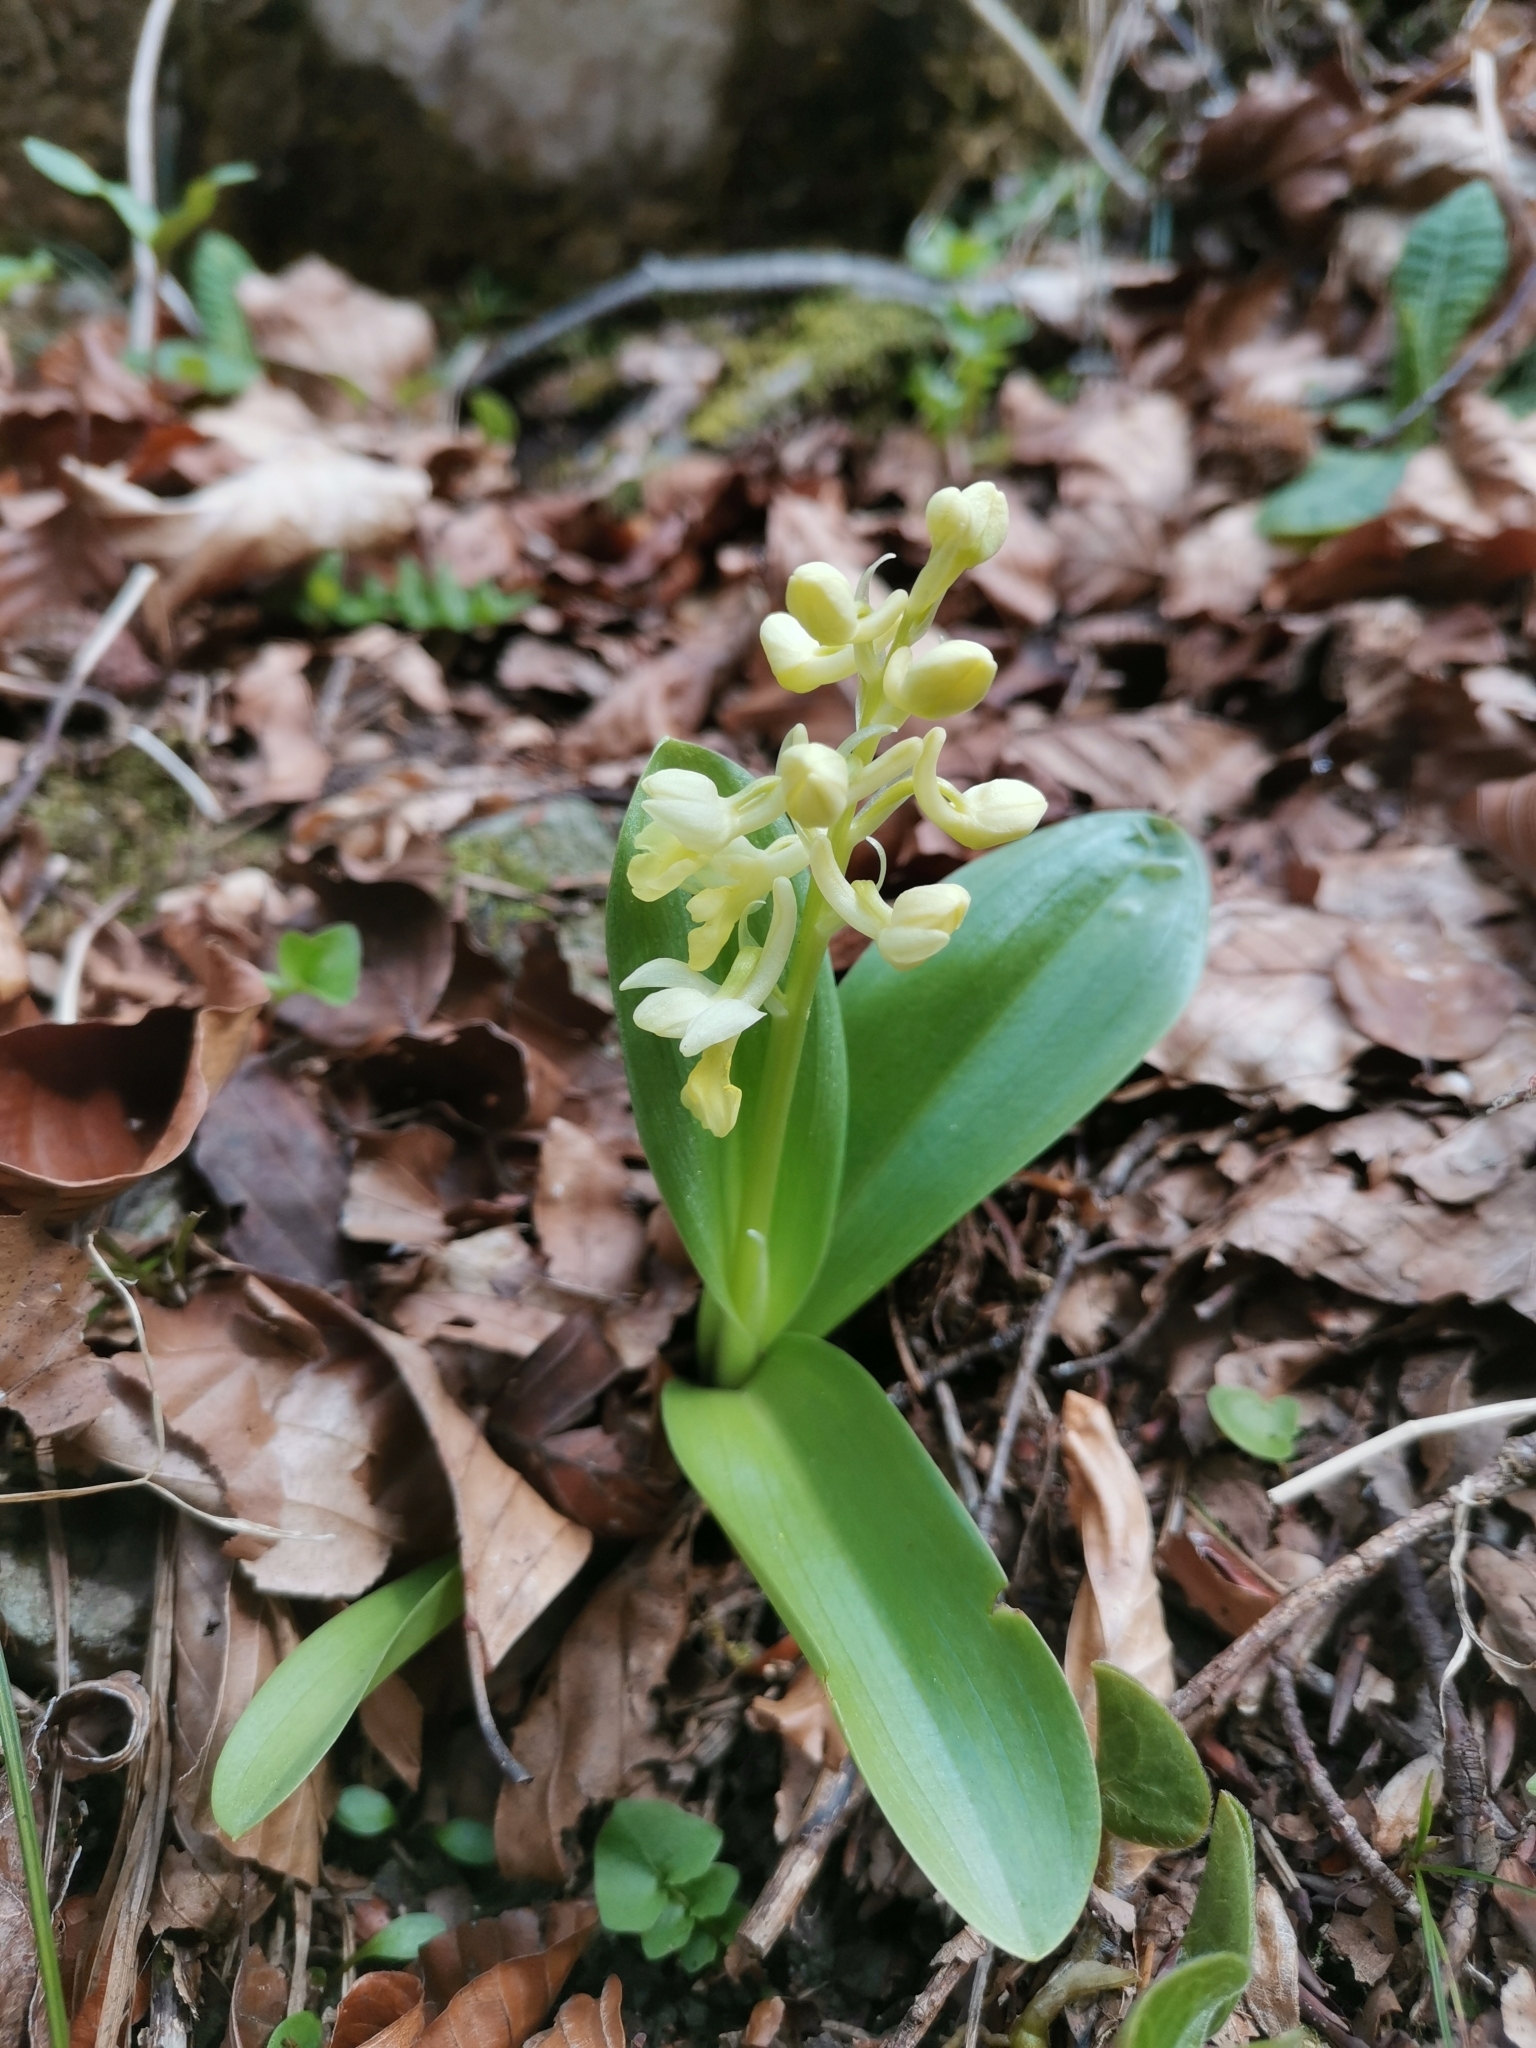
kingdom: Plantae
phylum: Tracheophyta
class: Liliopsida
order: Asparagales
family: Orchidaceae
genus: Orchis
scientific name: Orchis pallens
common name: Pale-flowered orchid
